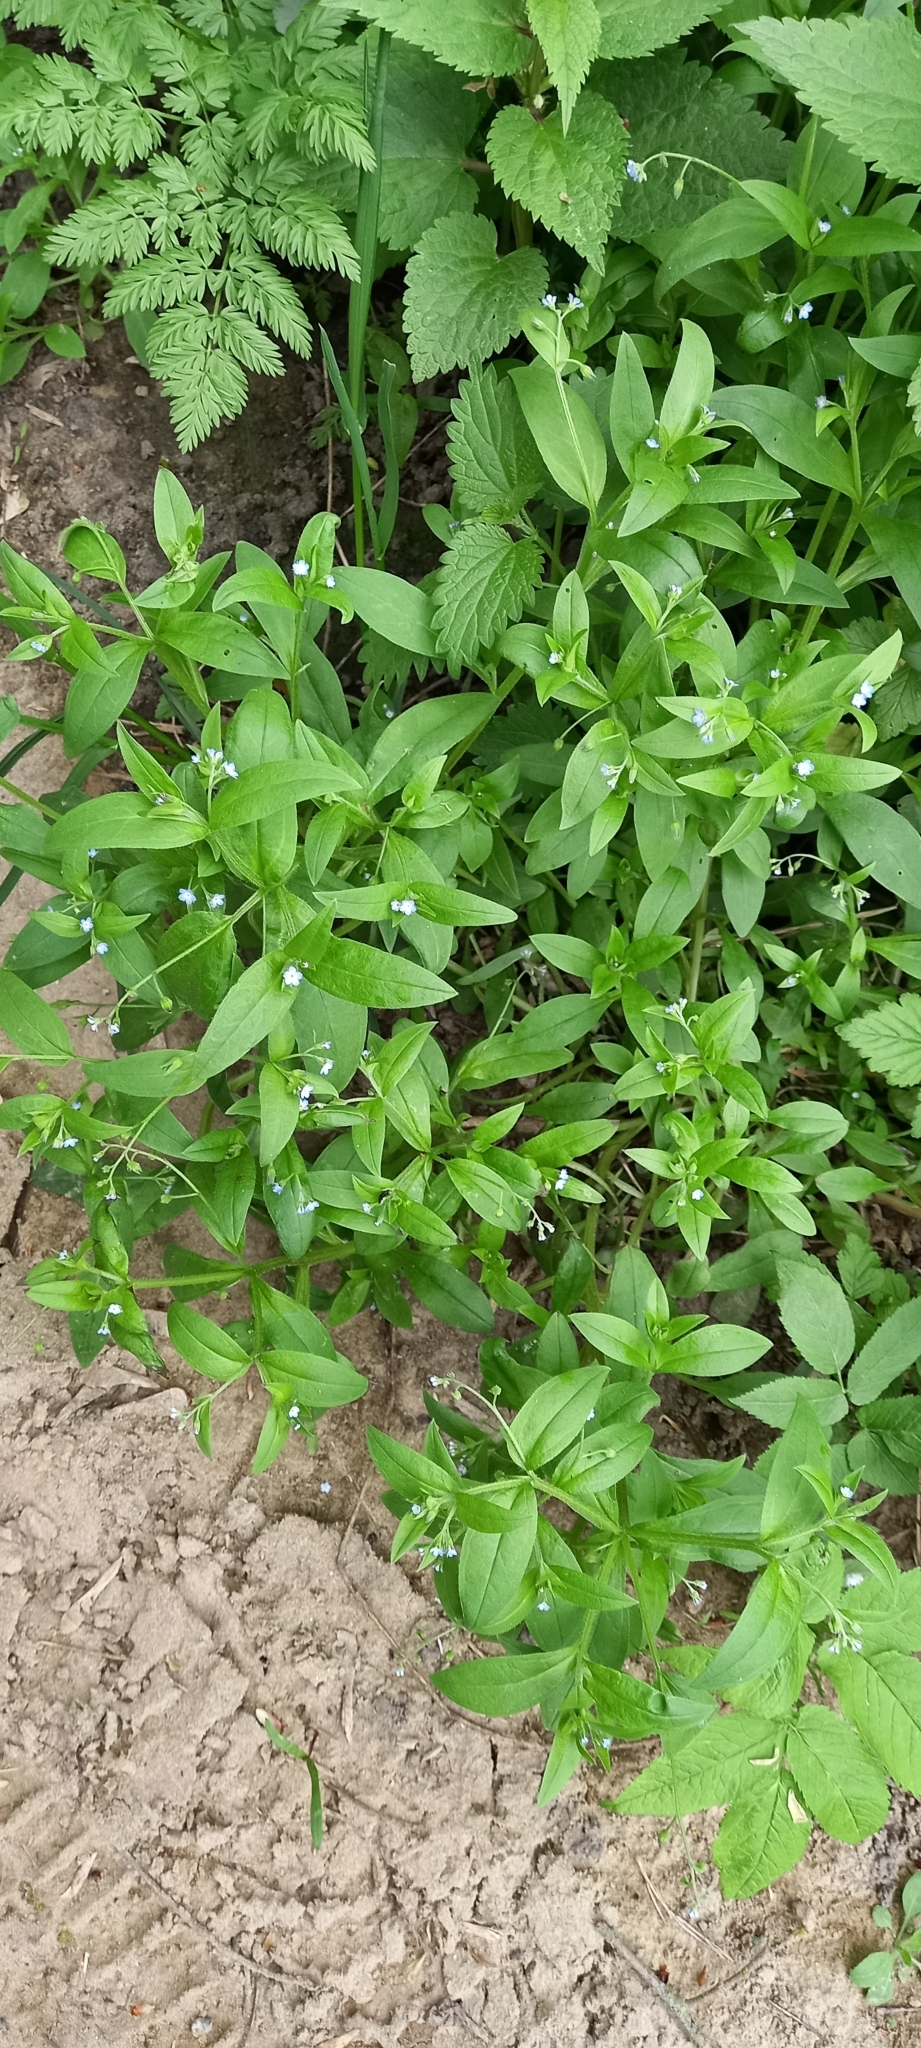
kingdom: Plantae
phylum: Tracheophyta
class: Magnoliopsida
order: Boraginales
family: Boraginaceae
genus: Myosotis
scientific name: Myosotis sparsiflora
